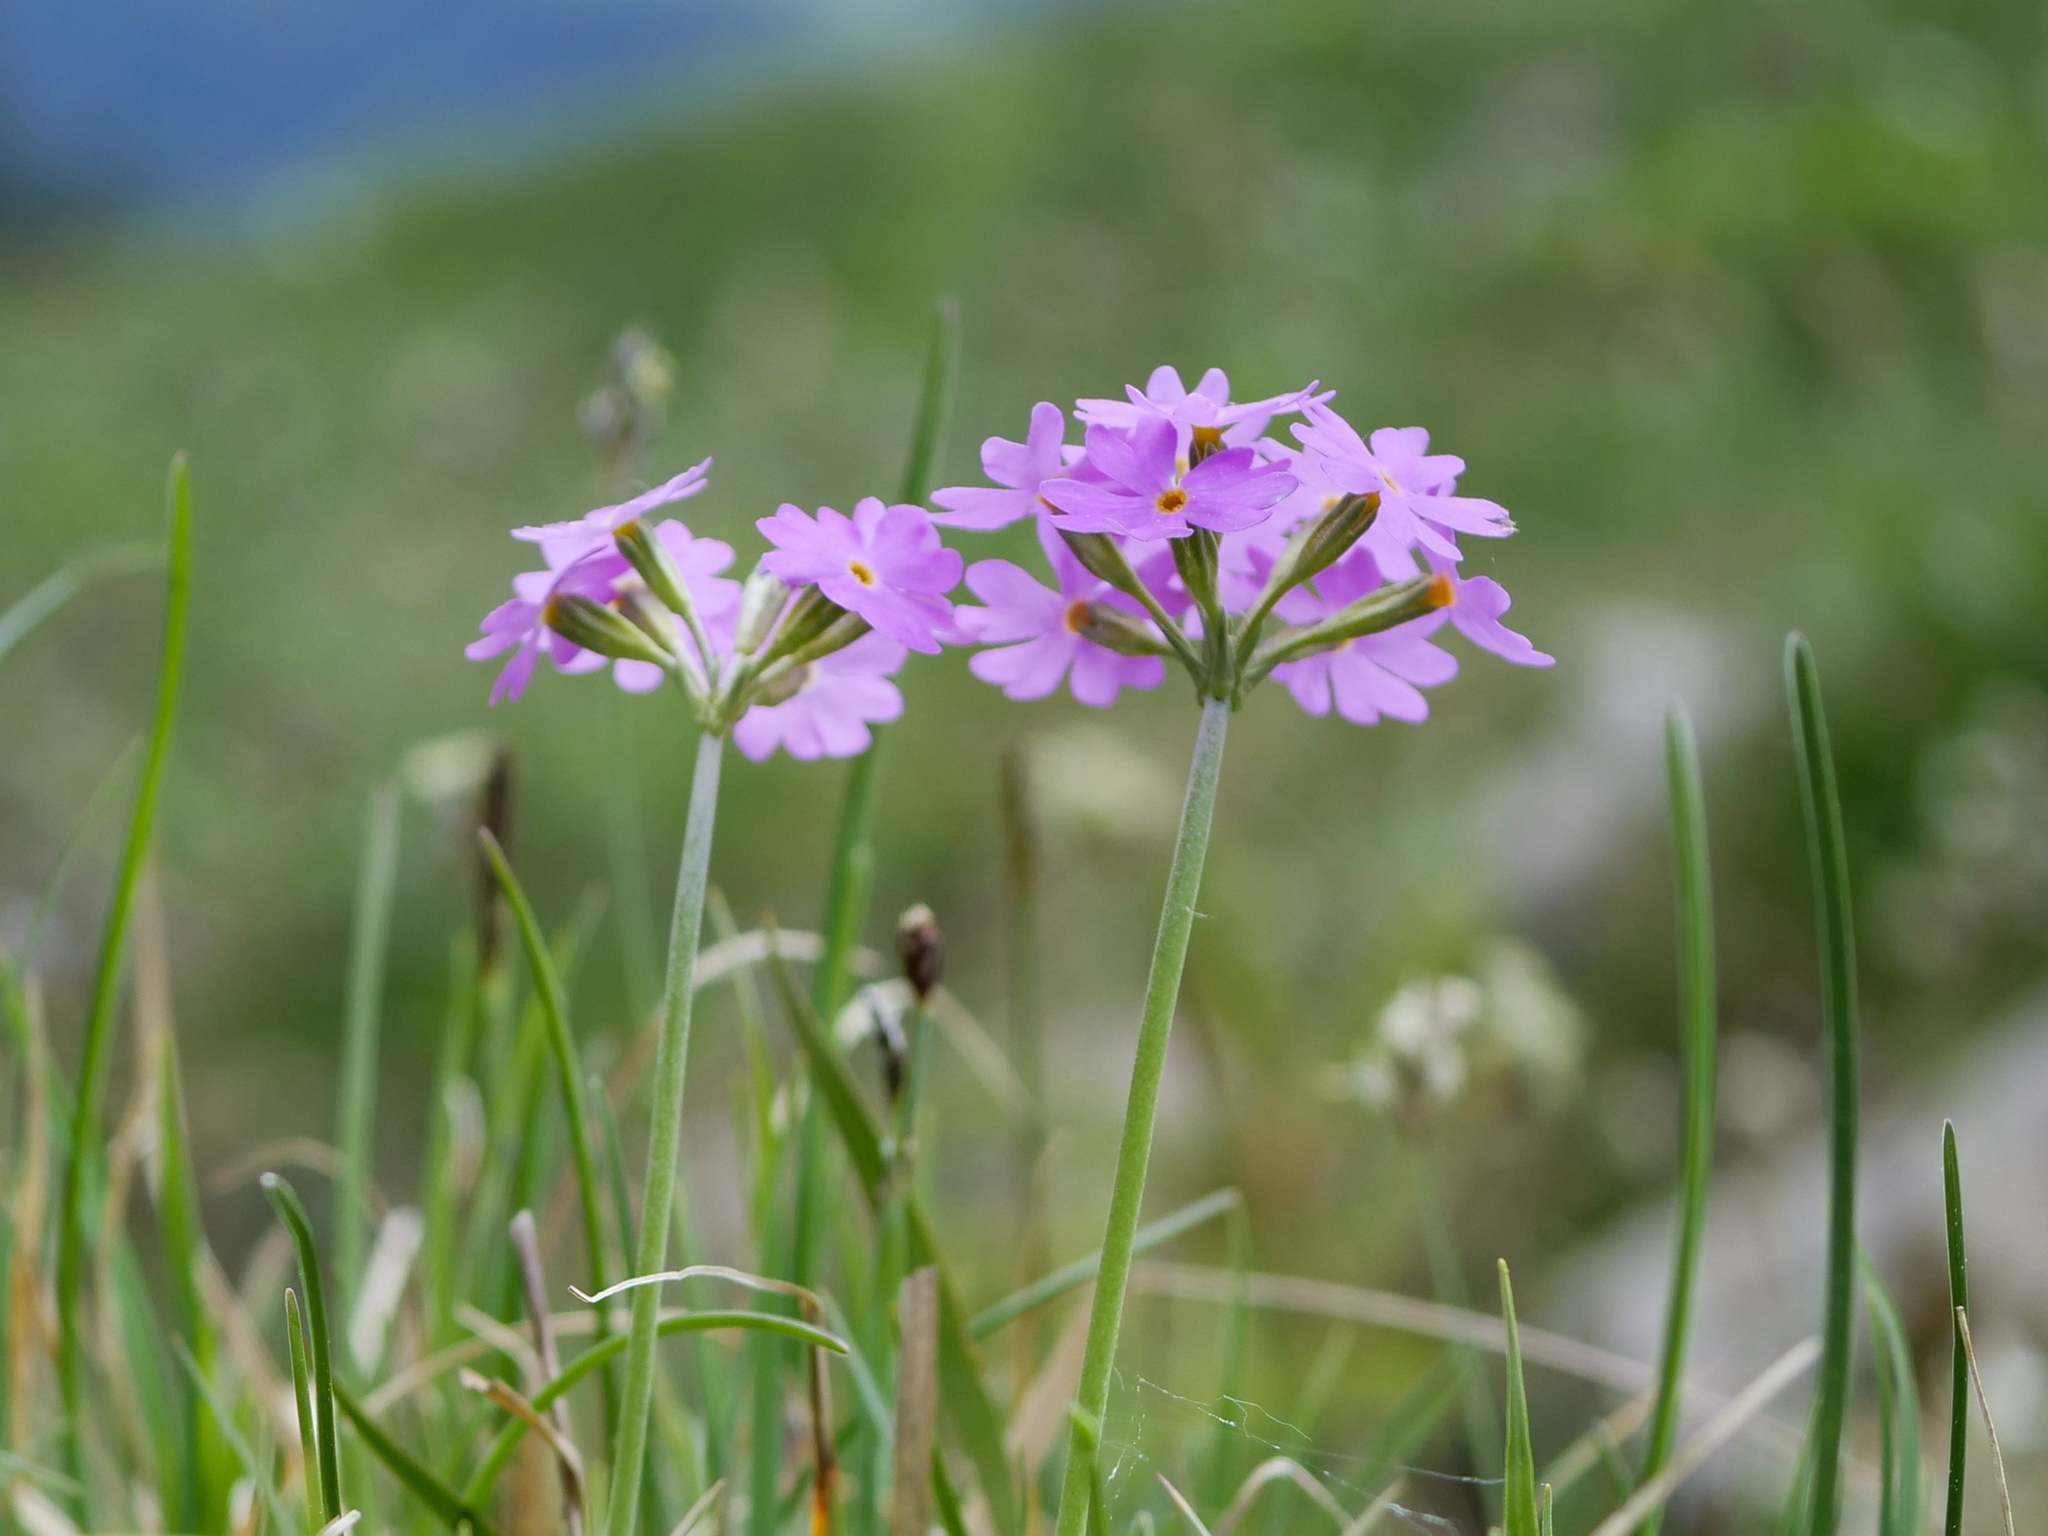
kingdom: Plantae
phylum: Tracheophyta
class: Magnoliopsida
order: Ericales
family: Primulaceae
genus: Primula
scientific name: Primula farinosa
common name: Bird's-eye primrose
